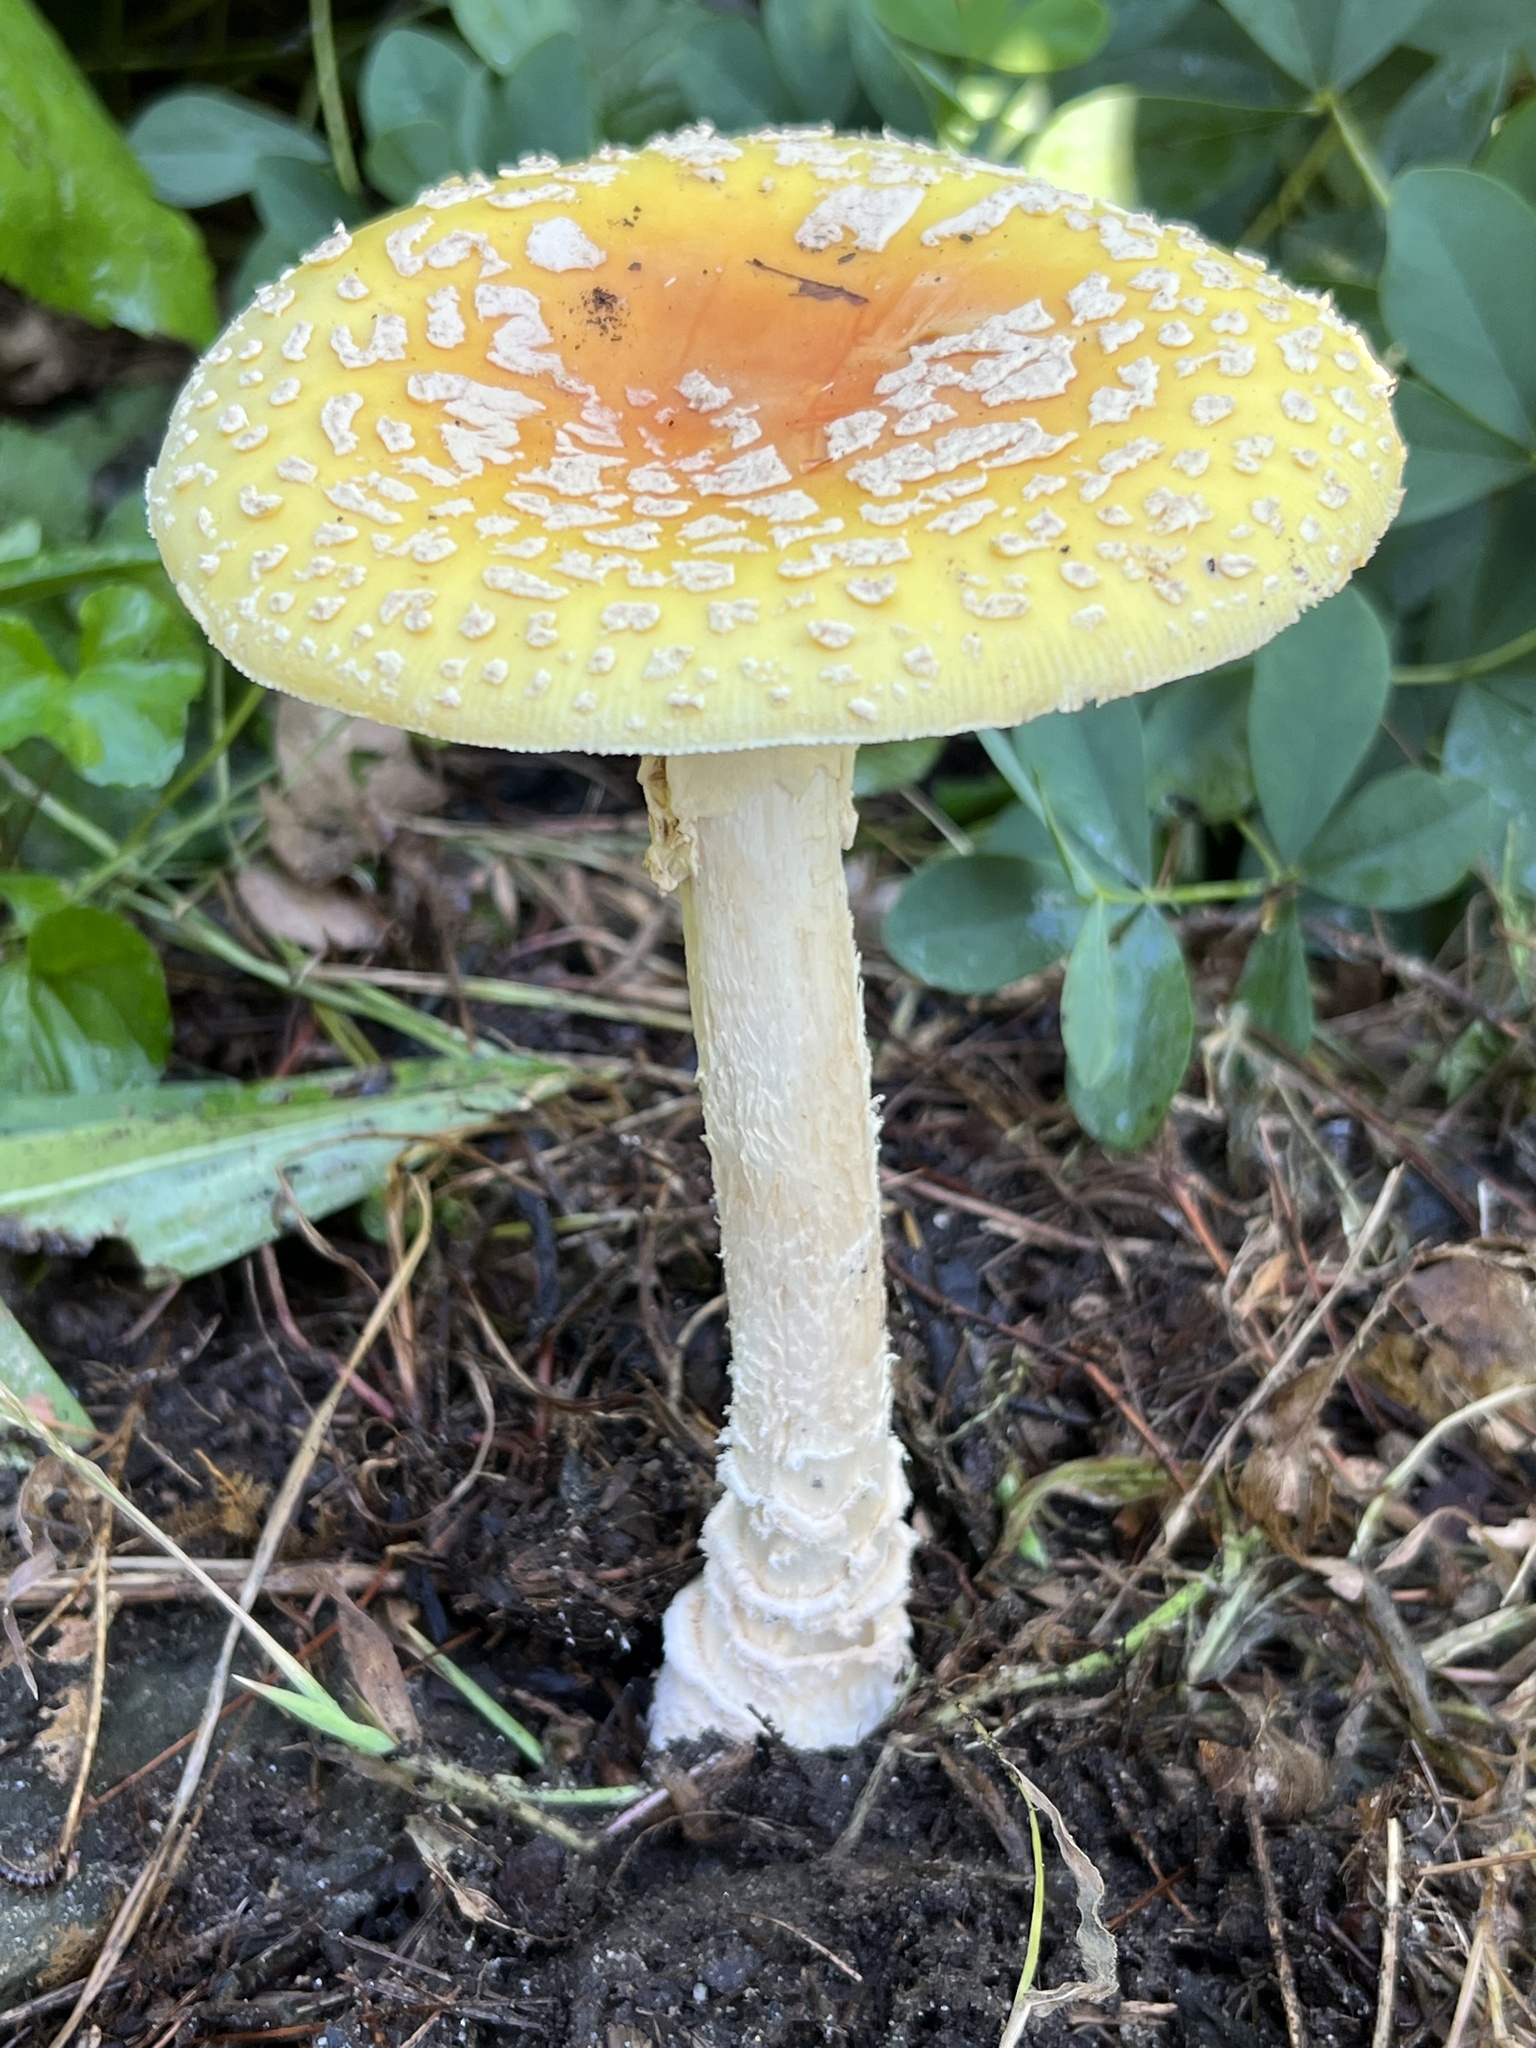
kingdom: Fungi
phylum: Basidiomycota
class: Agaricomycetes
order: Agaricales
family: Amanitaceae
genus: Amanita
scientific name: Amanita muscaria
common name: Fly agaric
